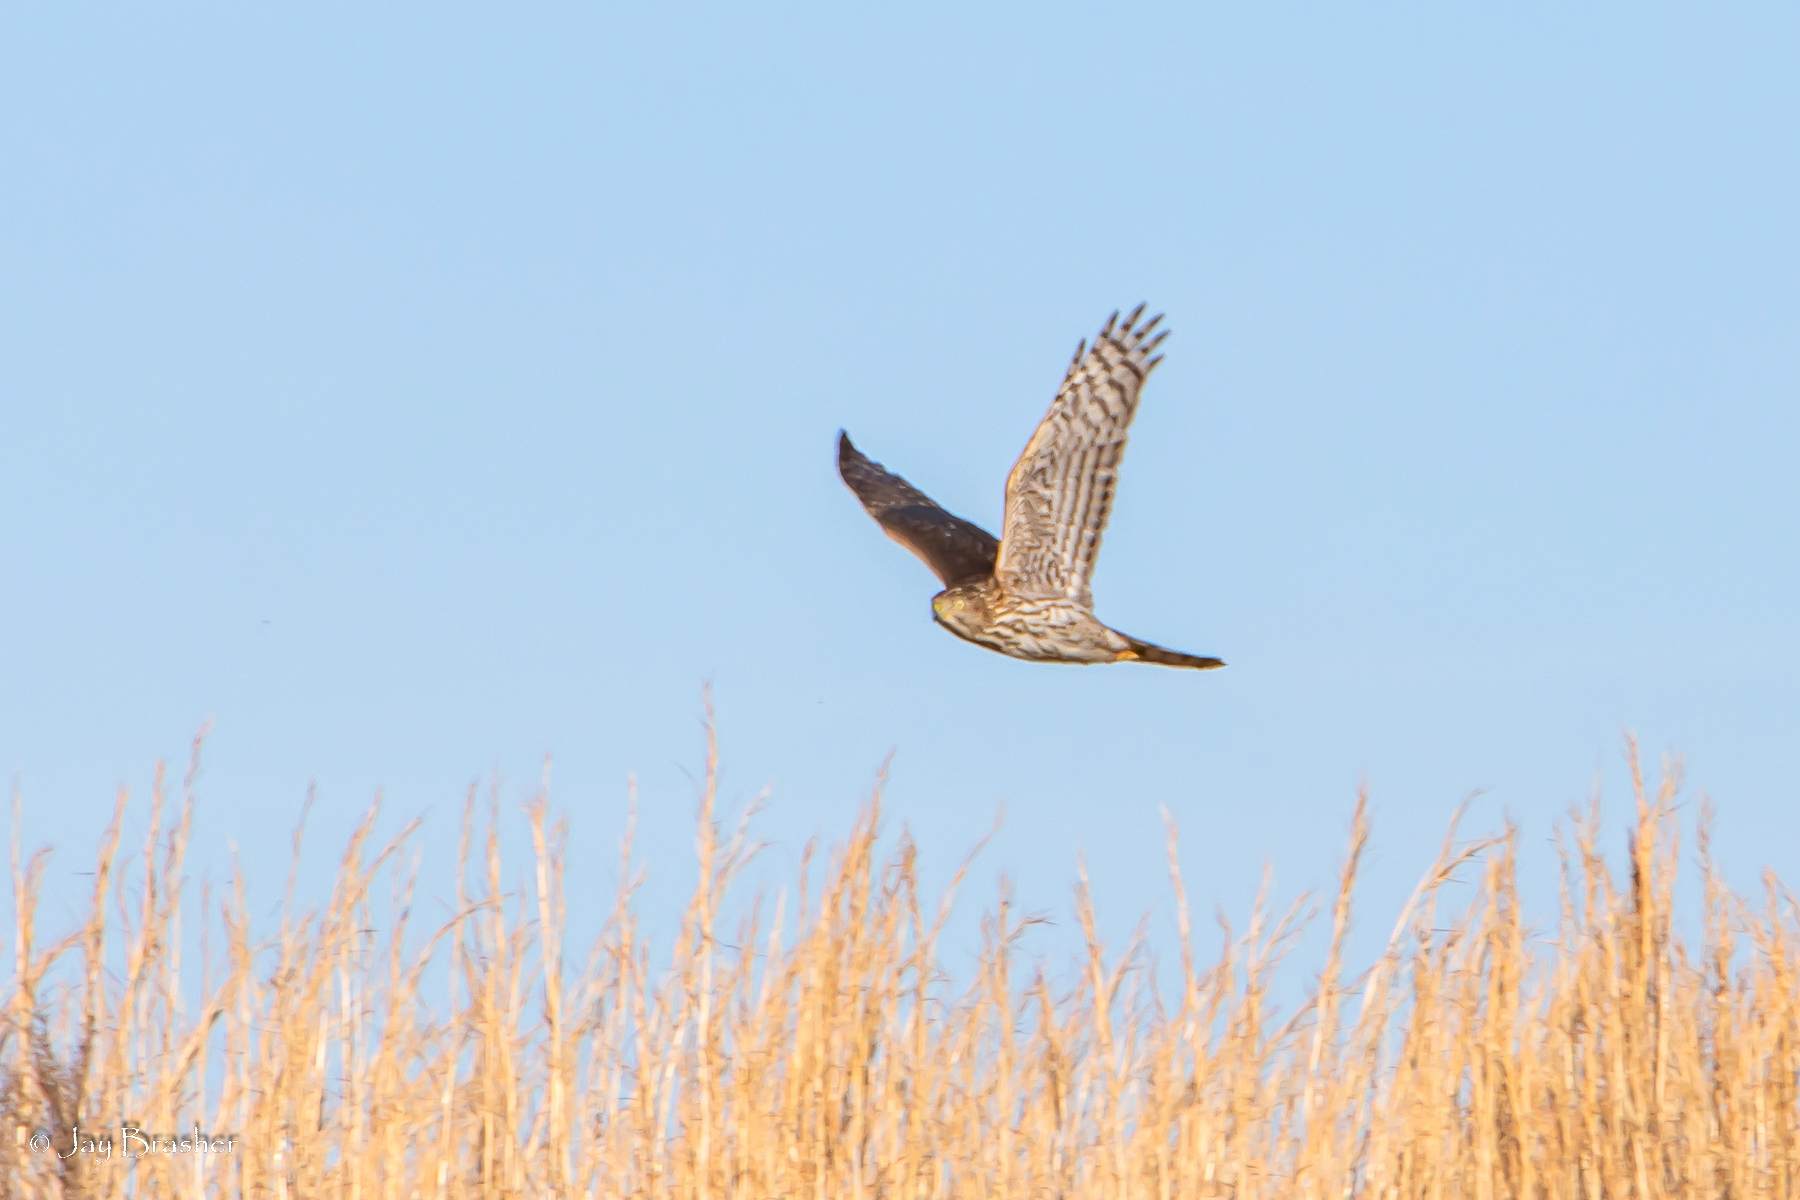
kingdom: Animalia
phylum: Chordata
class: Aves
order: Accipitriformes
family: Accipitridae
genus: Accipiter
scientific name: Accipiter cooperii
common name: Cooper's hawk
